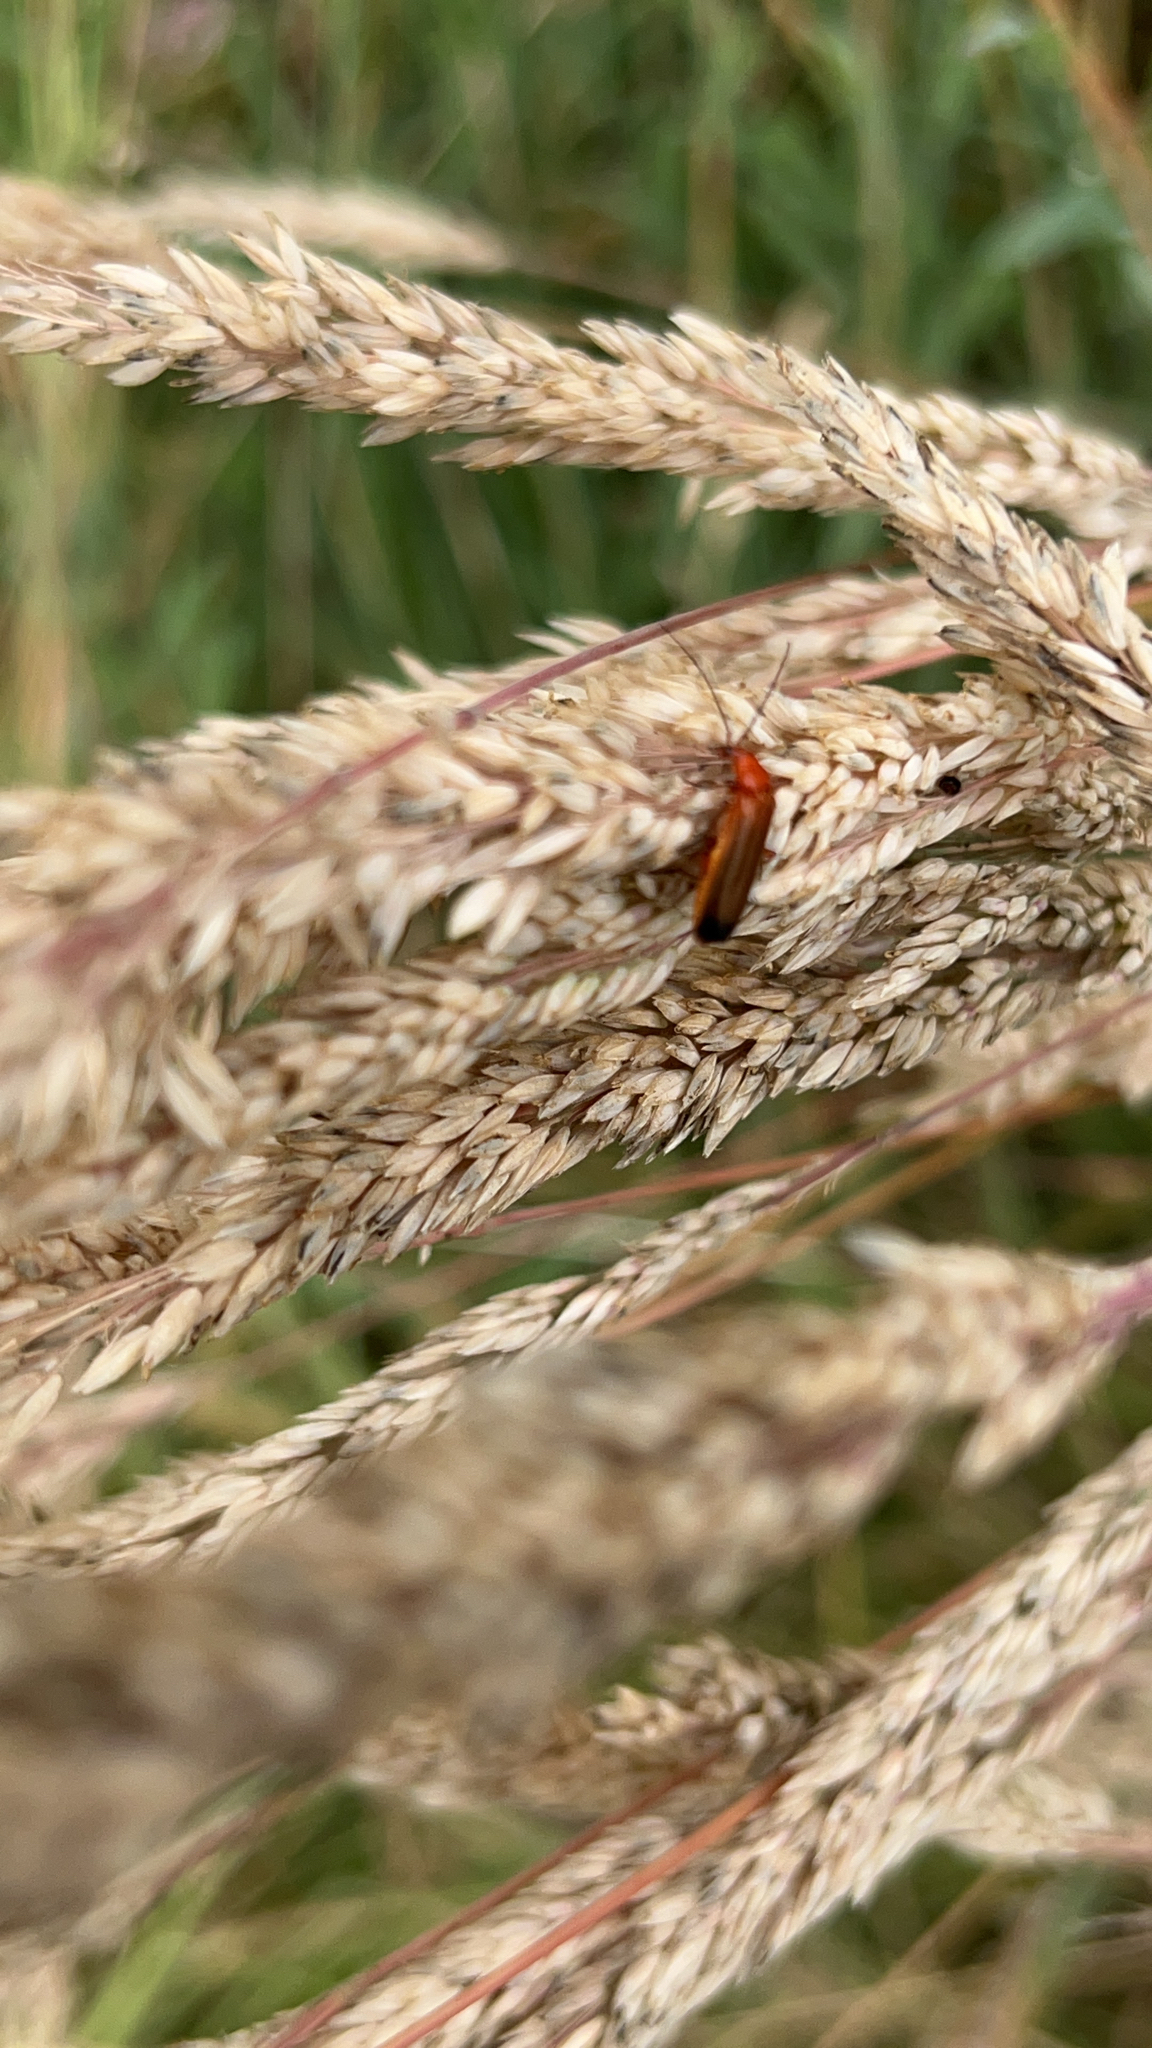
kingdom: Animalia
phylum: Arthropoda
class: Insecta
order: Coleoptera
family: Cantharidae
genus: Rhagonycha
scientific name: Rhagonycha fulva
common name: Common red soldier beetle
